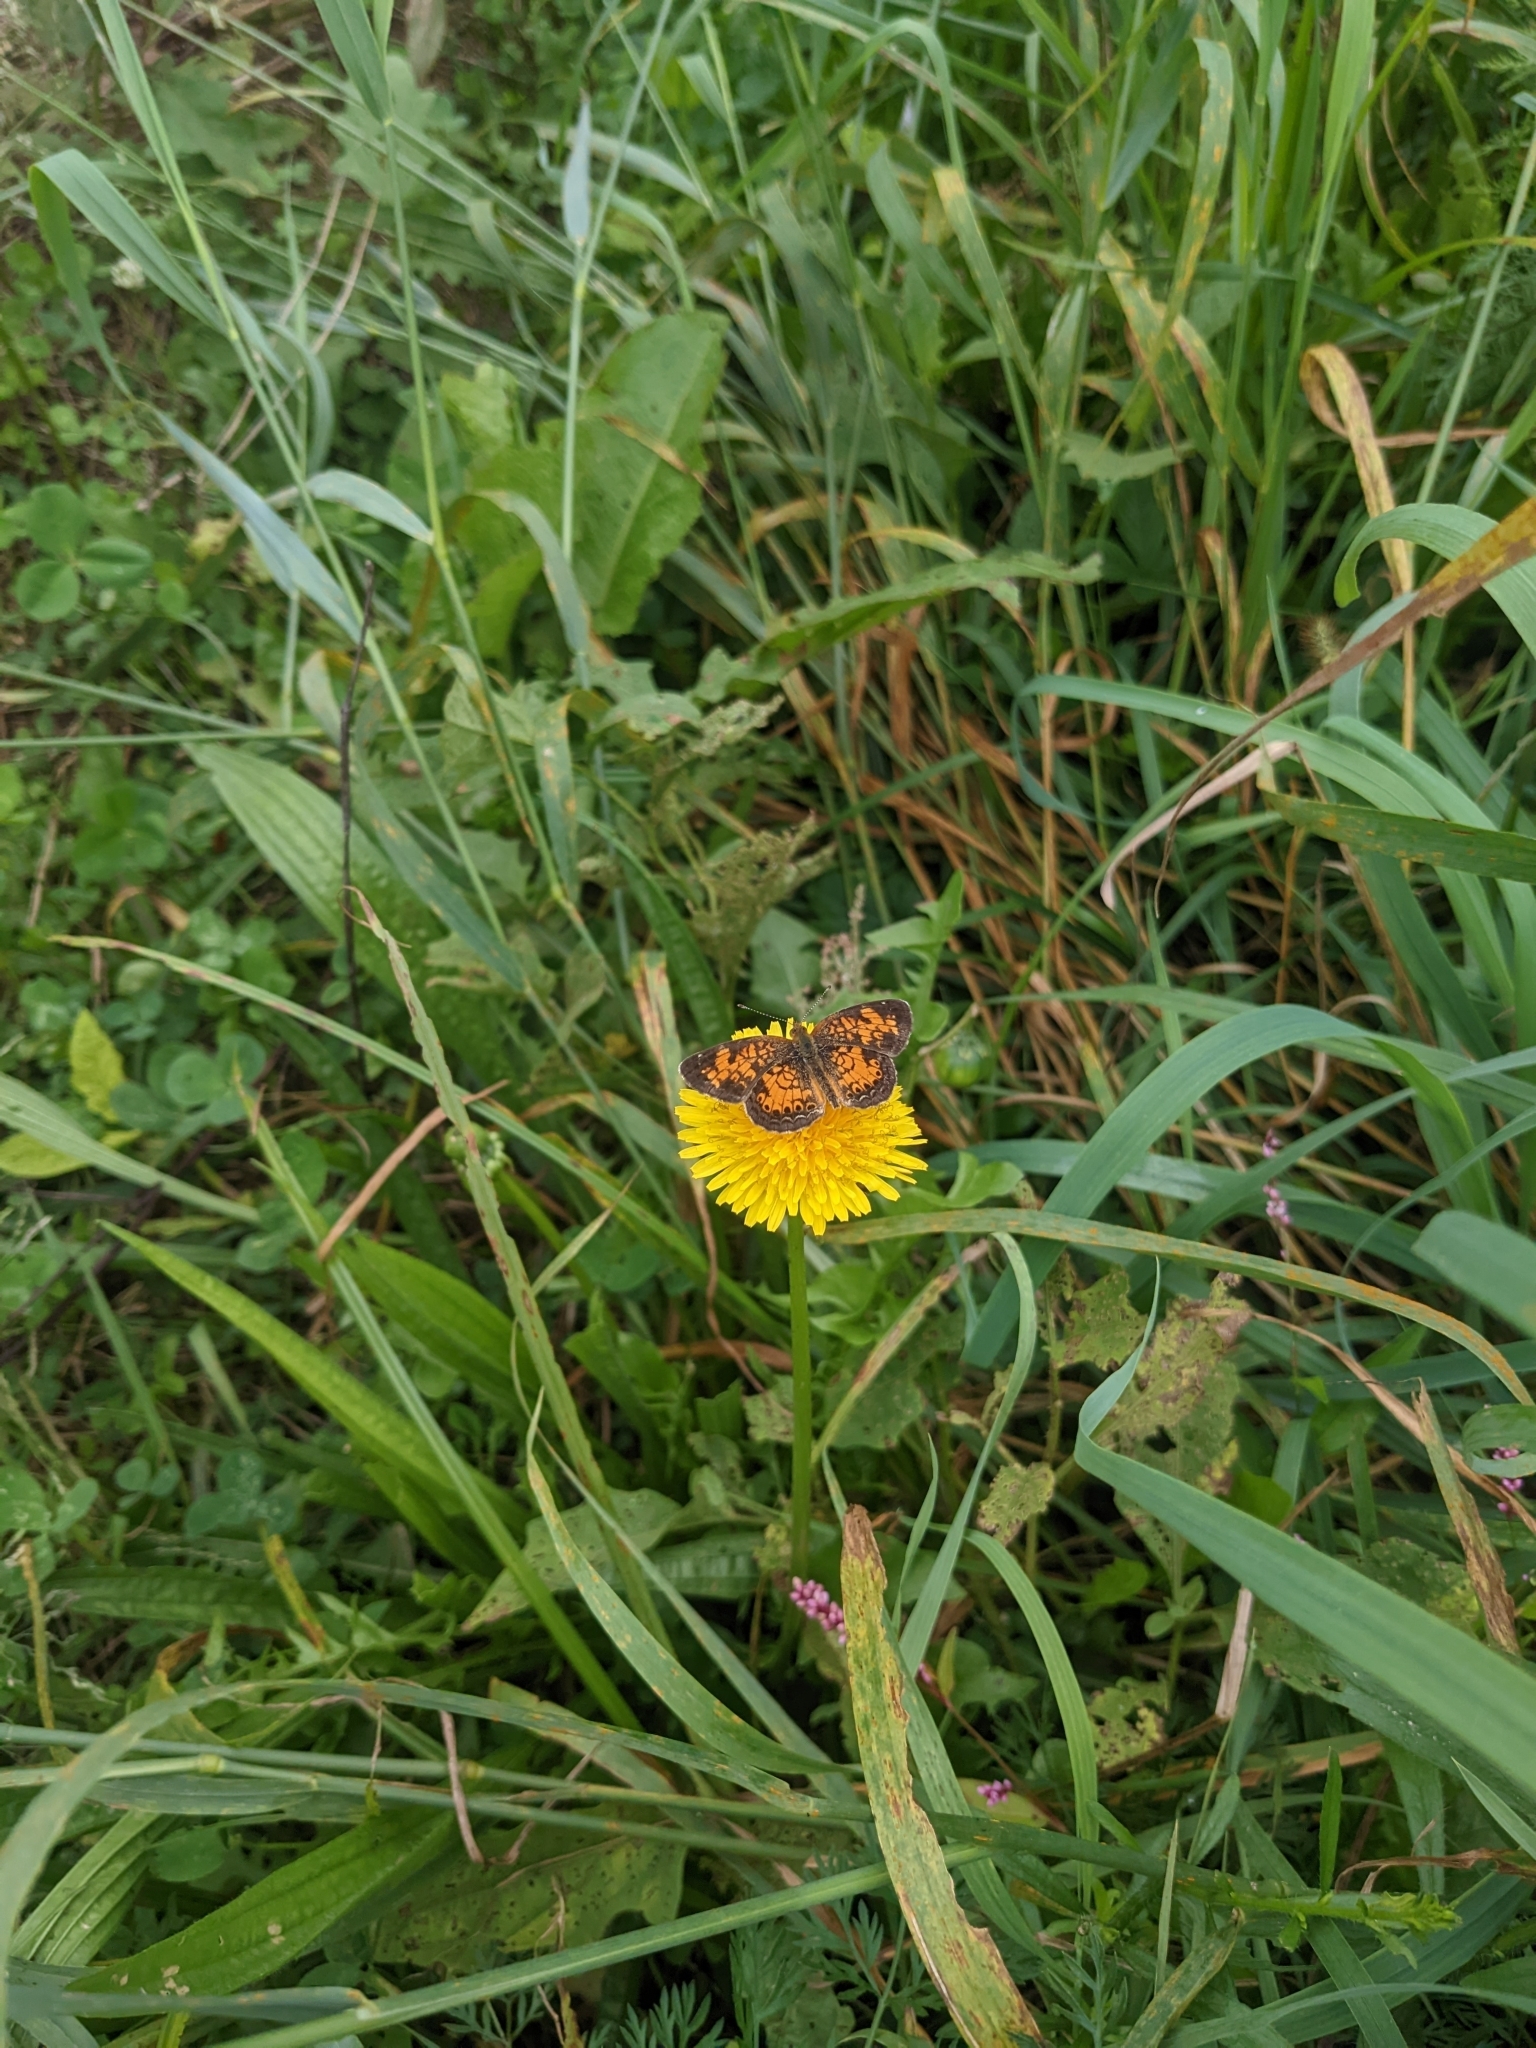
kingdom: Animalia
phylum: Arthropoda
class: Insecta
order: Lepidoptera
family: Nymphalidae
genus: Phyciodes
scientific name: Phyciodes tharos
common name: Pearl crescent
